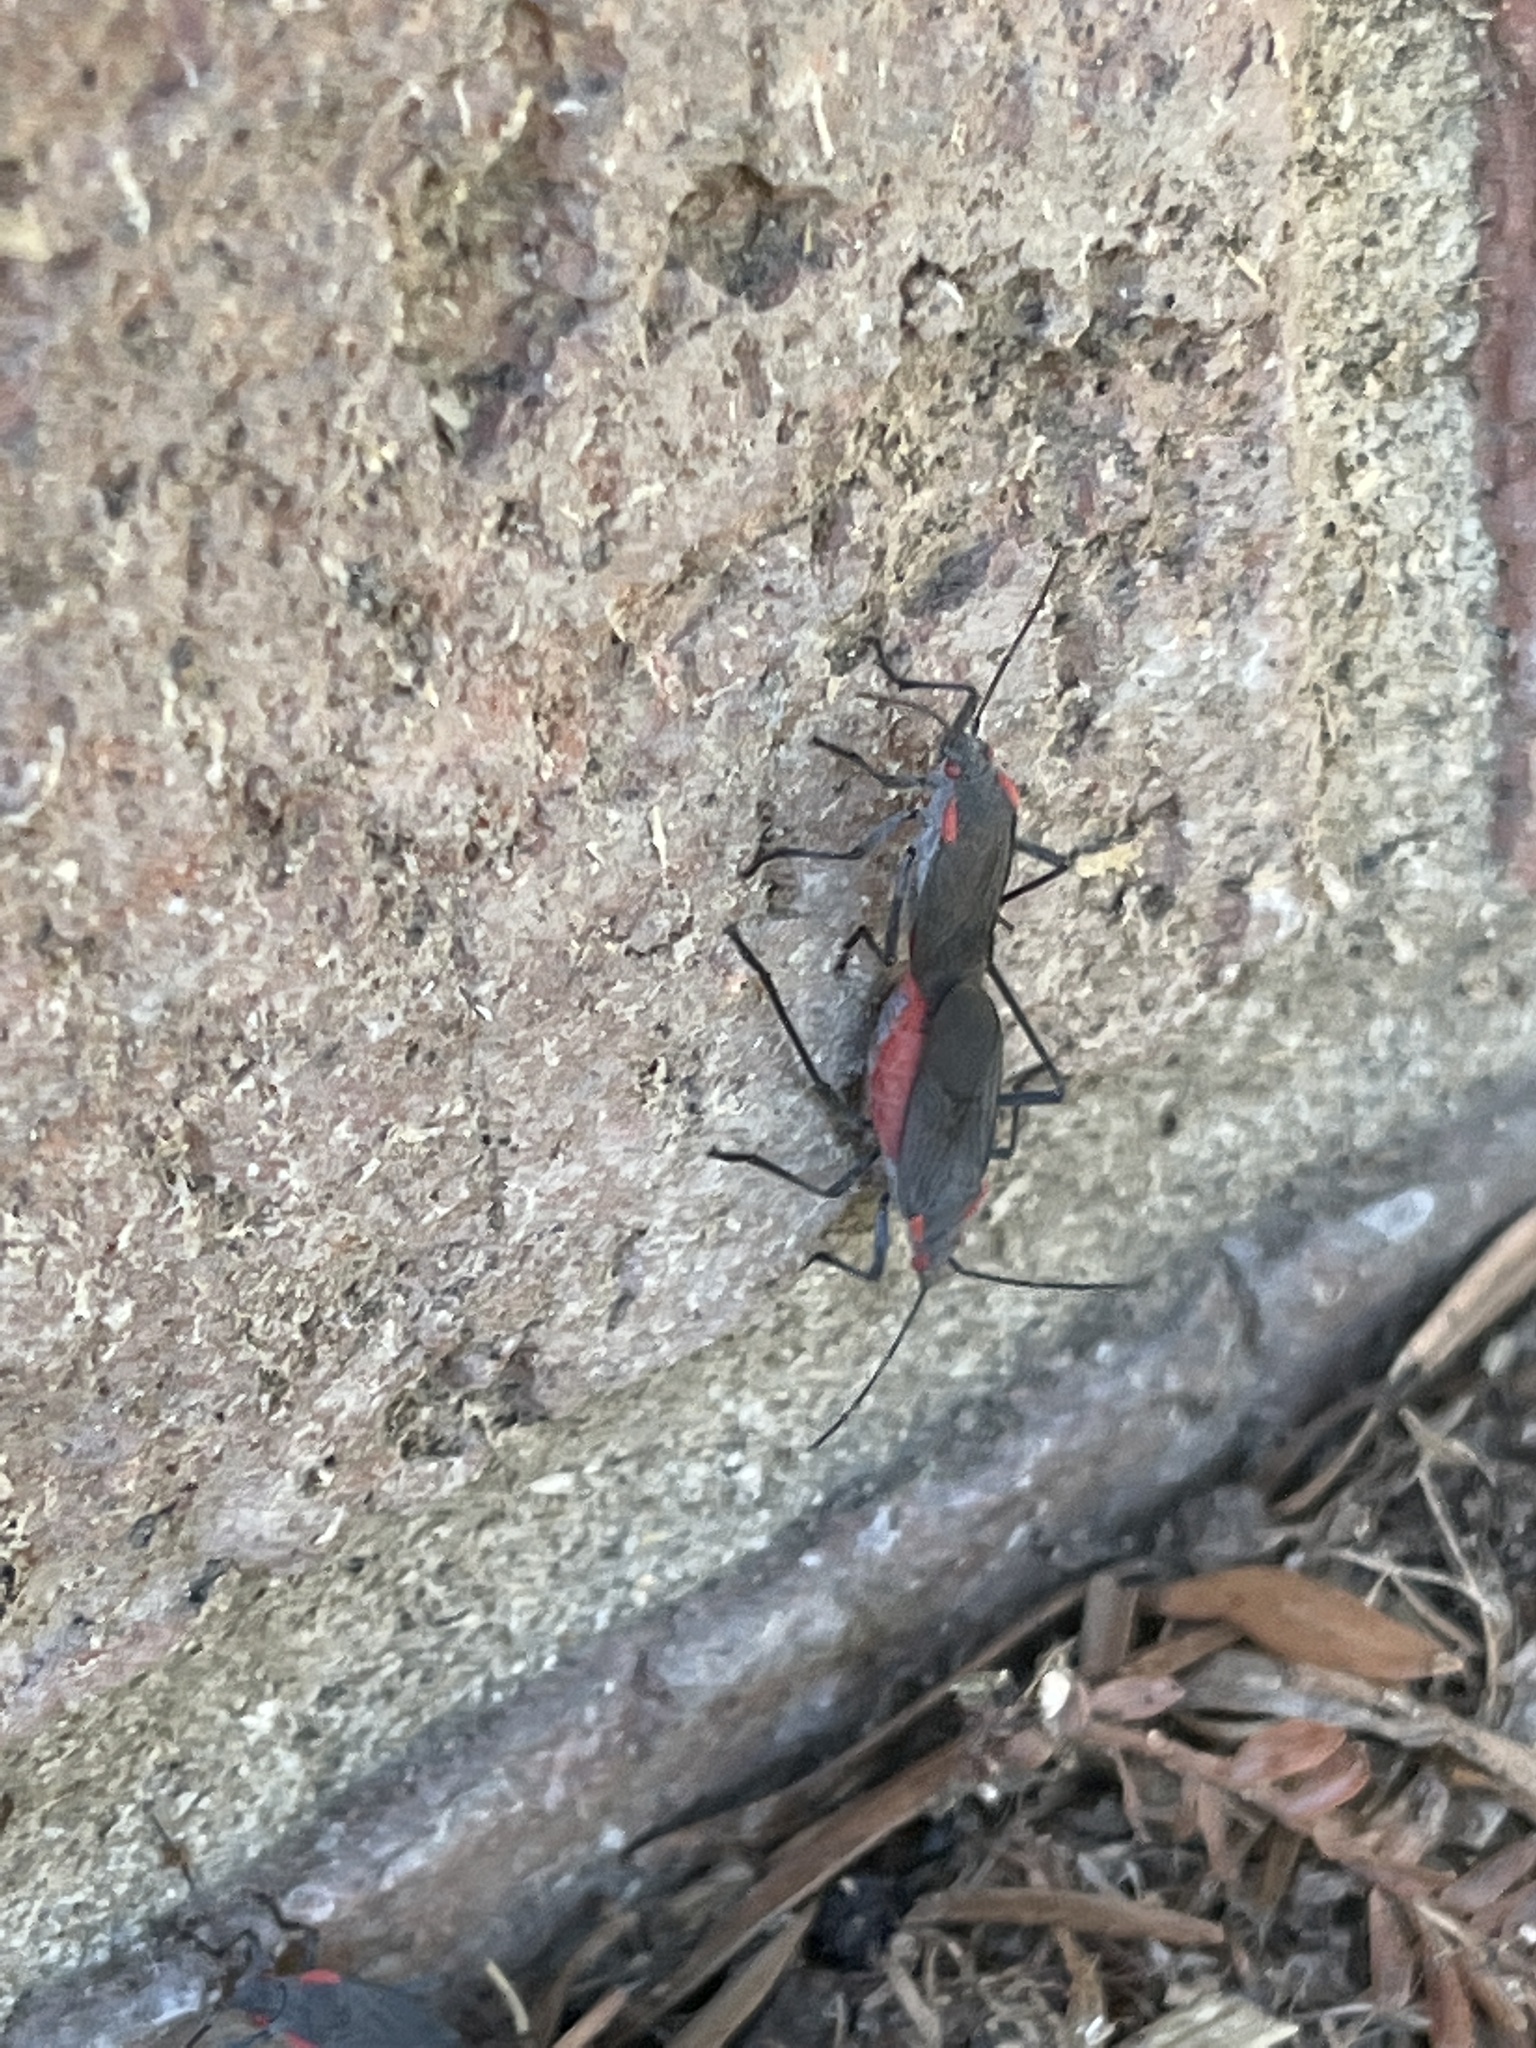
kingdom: Animalia
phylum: Arthropoda
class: Insecta
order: Hemiptera
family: Rhopalidae
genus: Jadera
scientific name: Jadera haematoloma
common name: Red-shouldered bug
